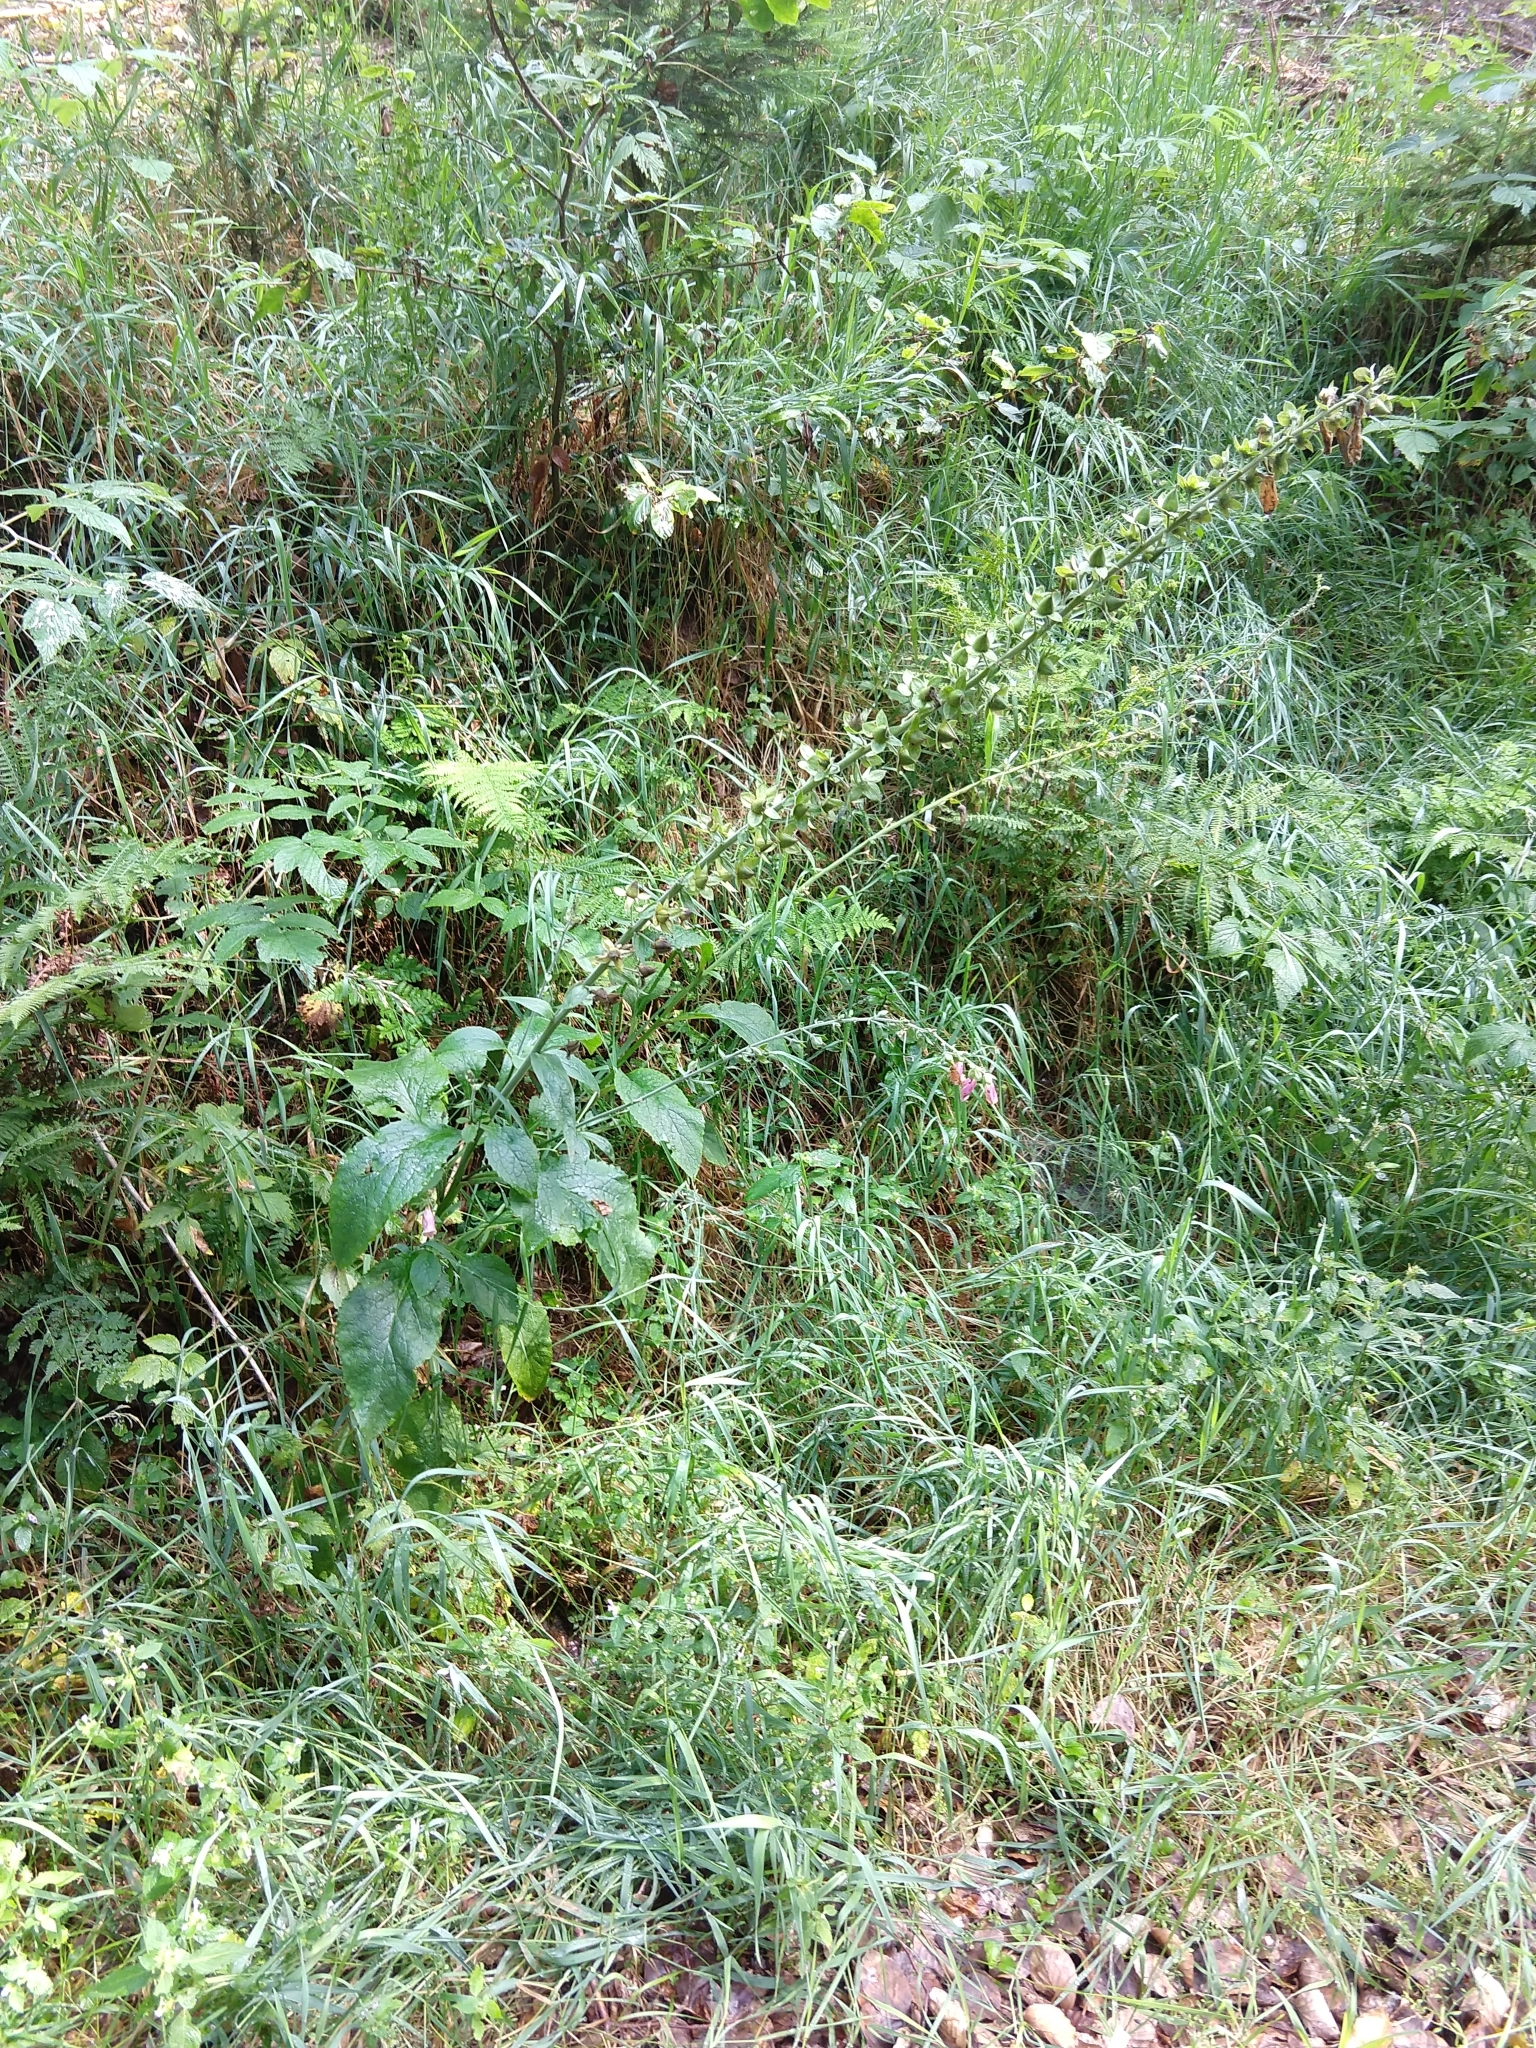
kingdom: Plantae
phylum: Tracheophyta
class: Magnoliopsida
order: Lamiales
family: Plantaginaceae
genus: Digitalis
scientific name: Digitalis purpurea
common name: Foxglove
